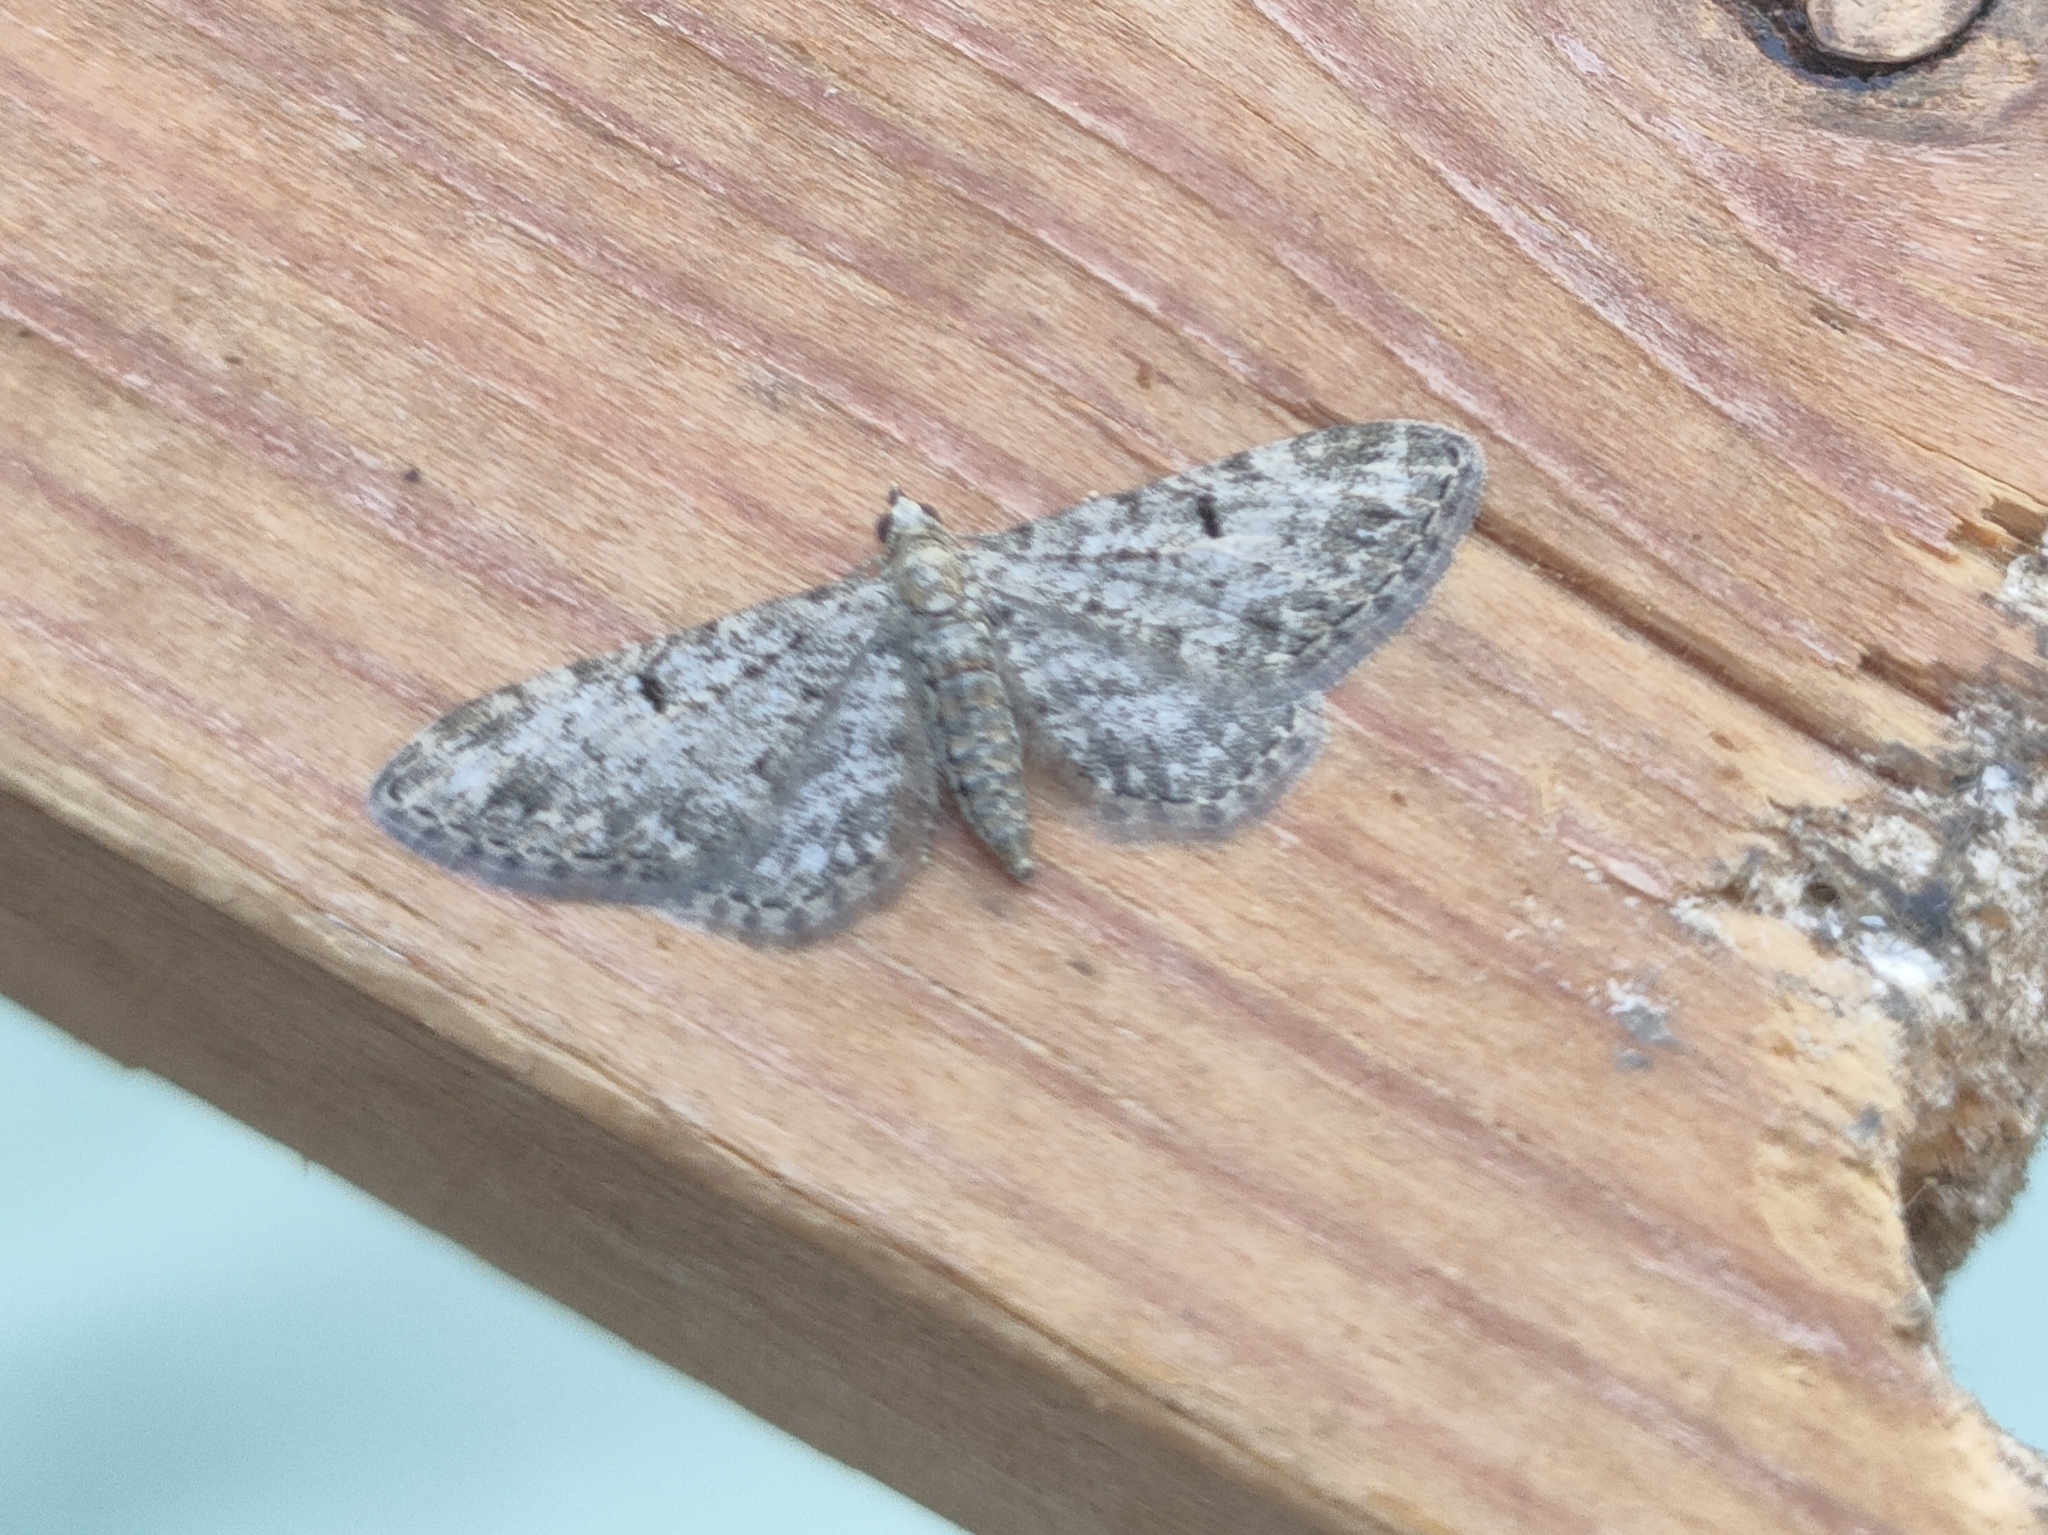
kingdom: Animalia
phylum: Arthropoda
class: Insecta
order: Lepidoptera
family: Geometridae
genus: Eupithecia
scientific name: Eupithecia senorita
